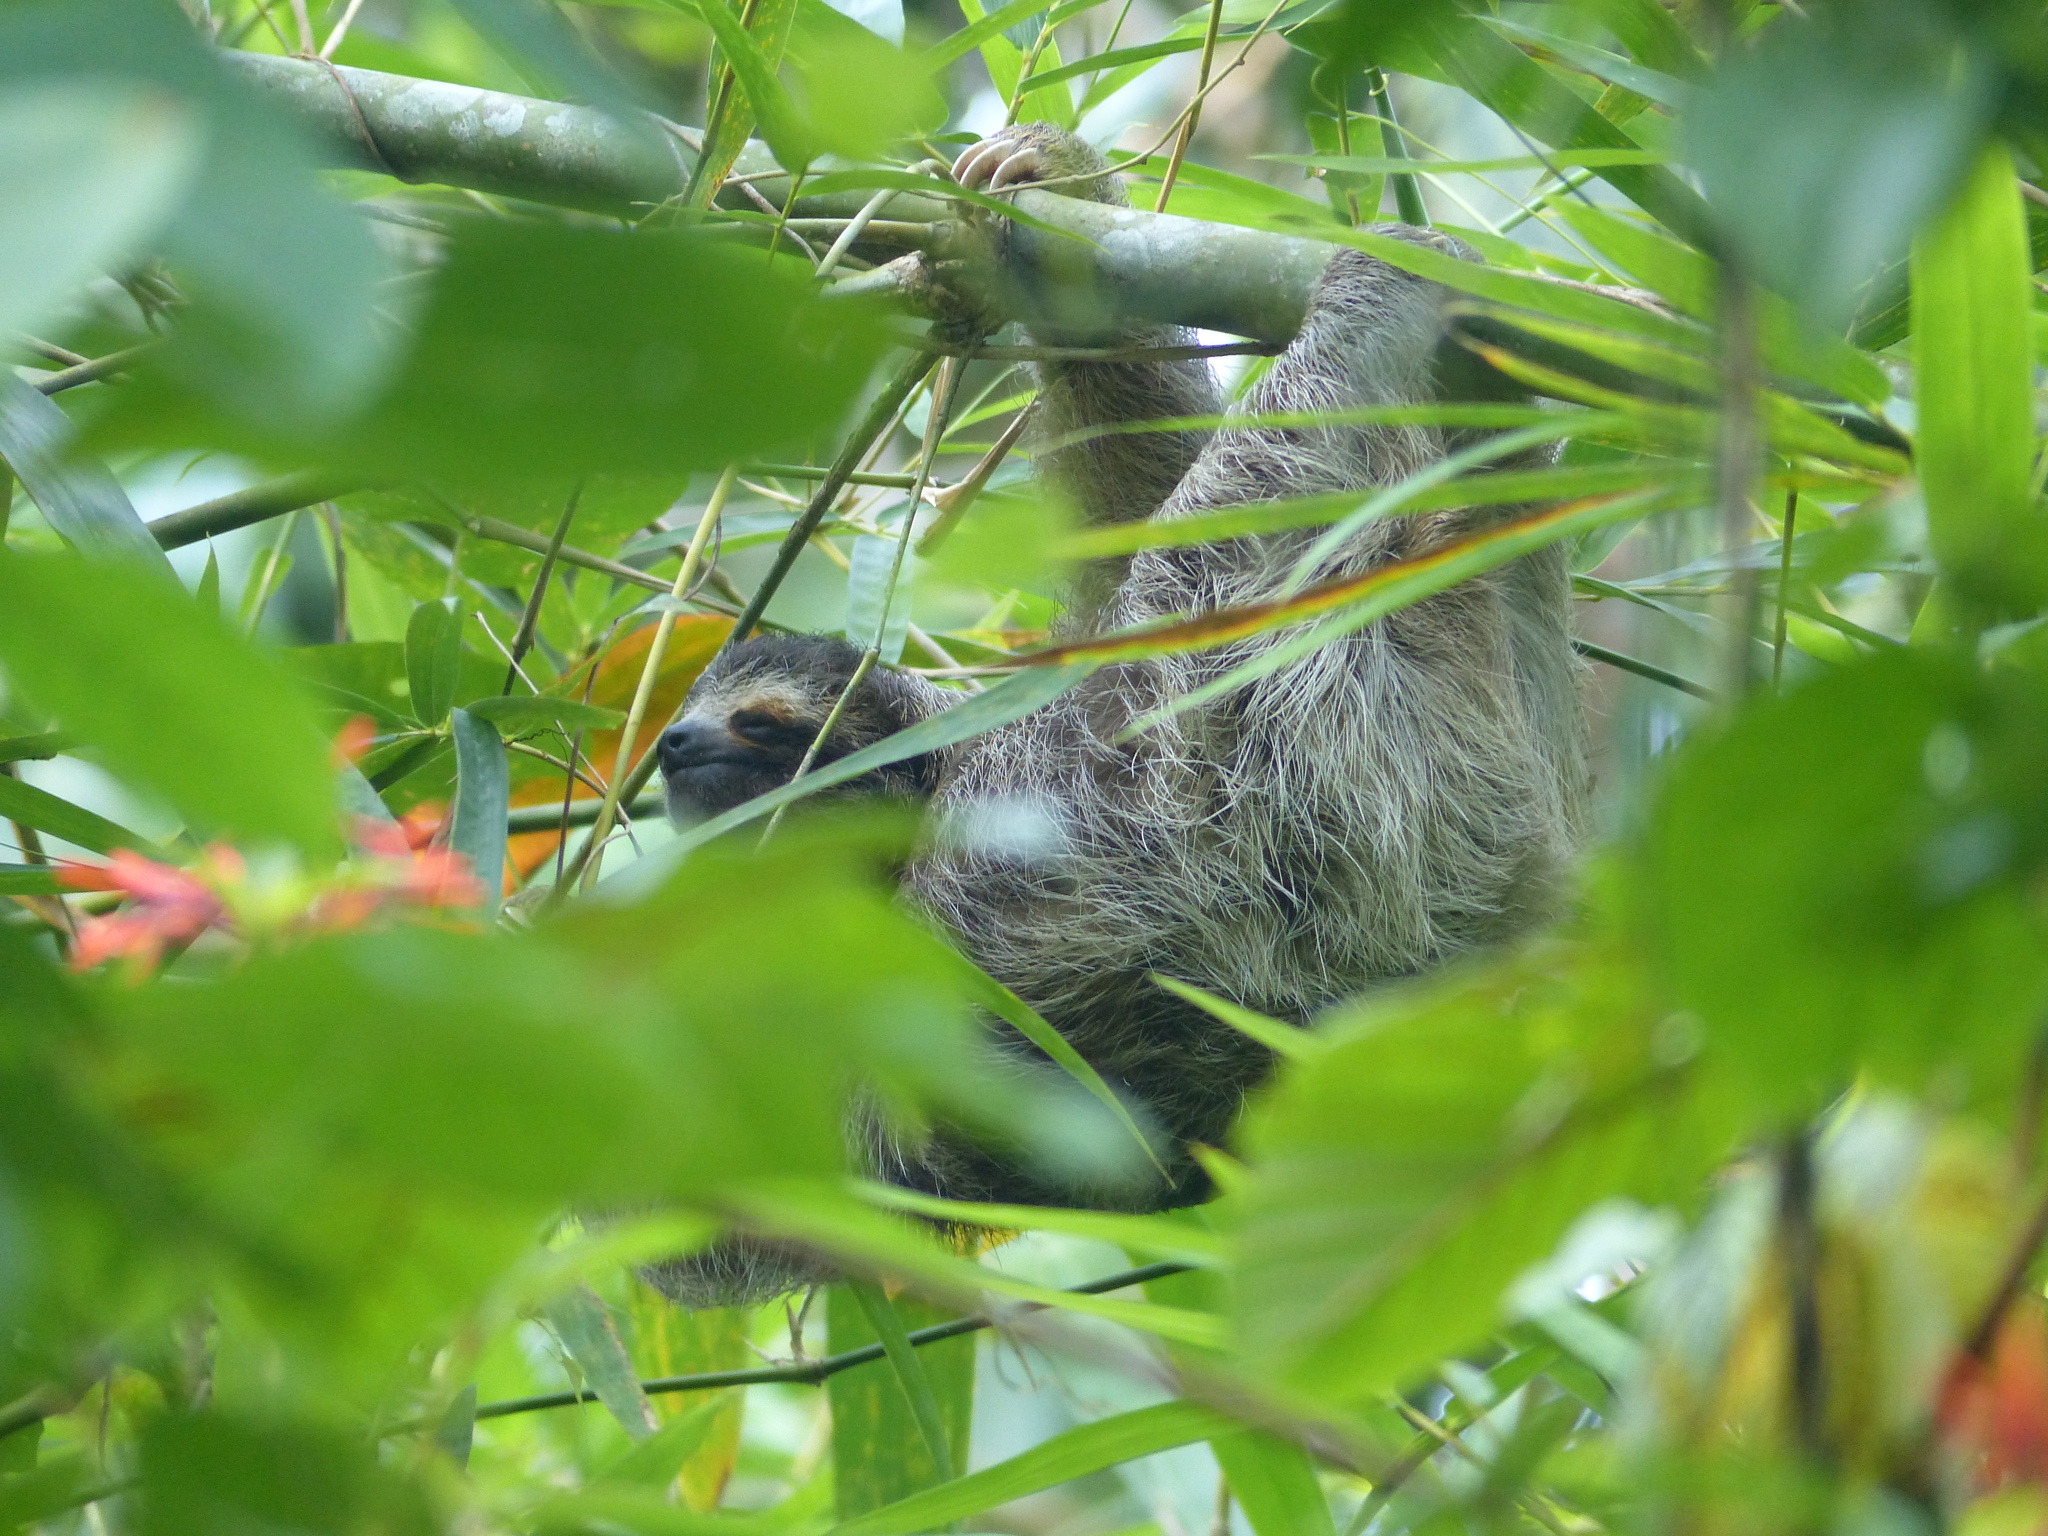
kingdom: Animalia
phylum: Chordata
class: Mammalia
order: Pilosa
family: Bradypodidae
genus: Bradypus
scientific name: Bradypus variegatus
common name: Brown-throated three-toed sloth
